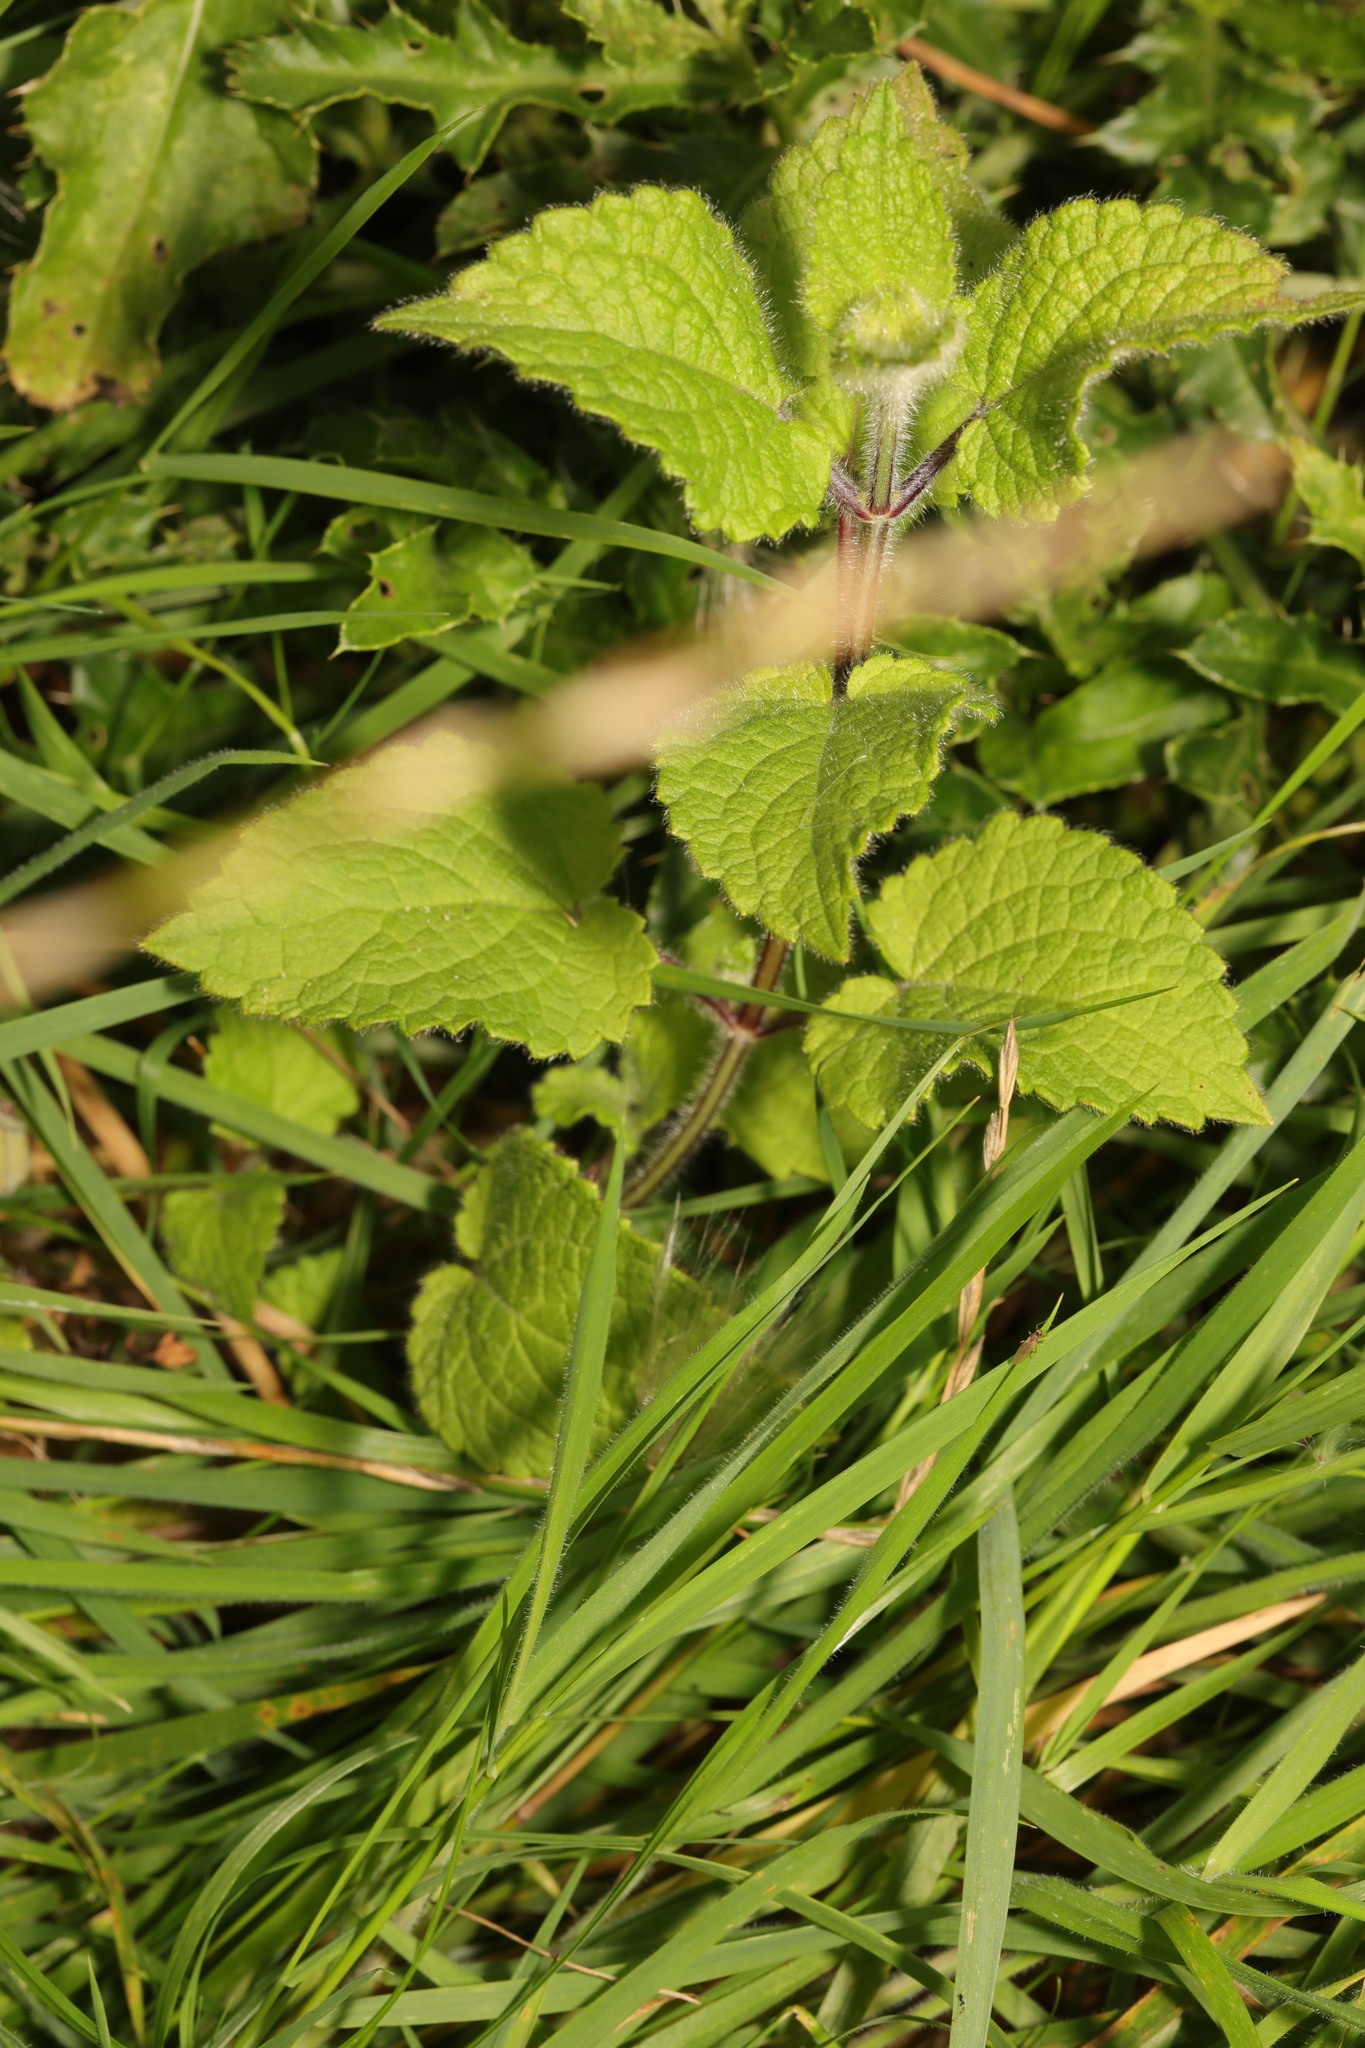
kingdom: Plantae
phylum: Tracheophyta
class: Magnoliopsida
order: Lamiales
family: Lamiaceae
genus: Stachys
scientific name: Stachys sylvatica
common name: Hedge woundwort
